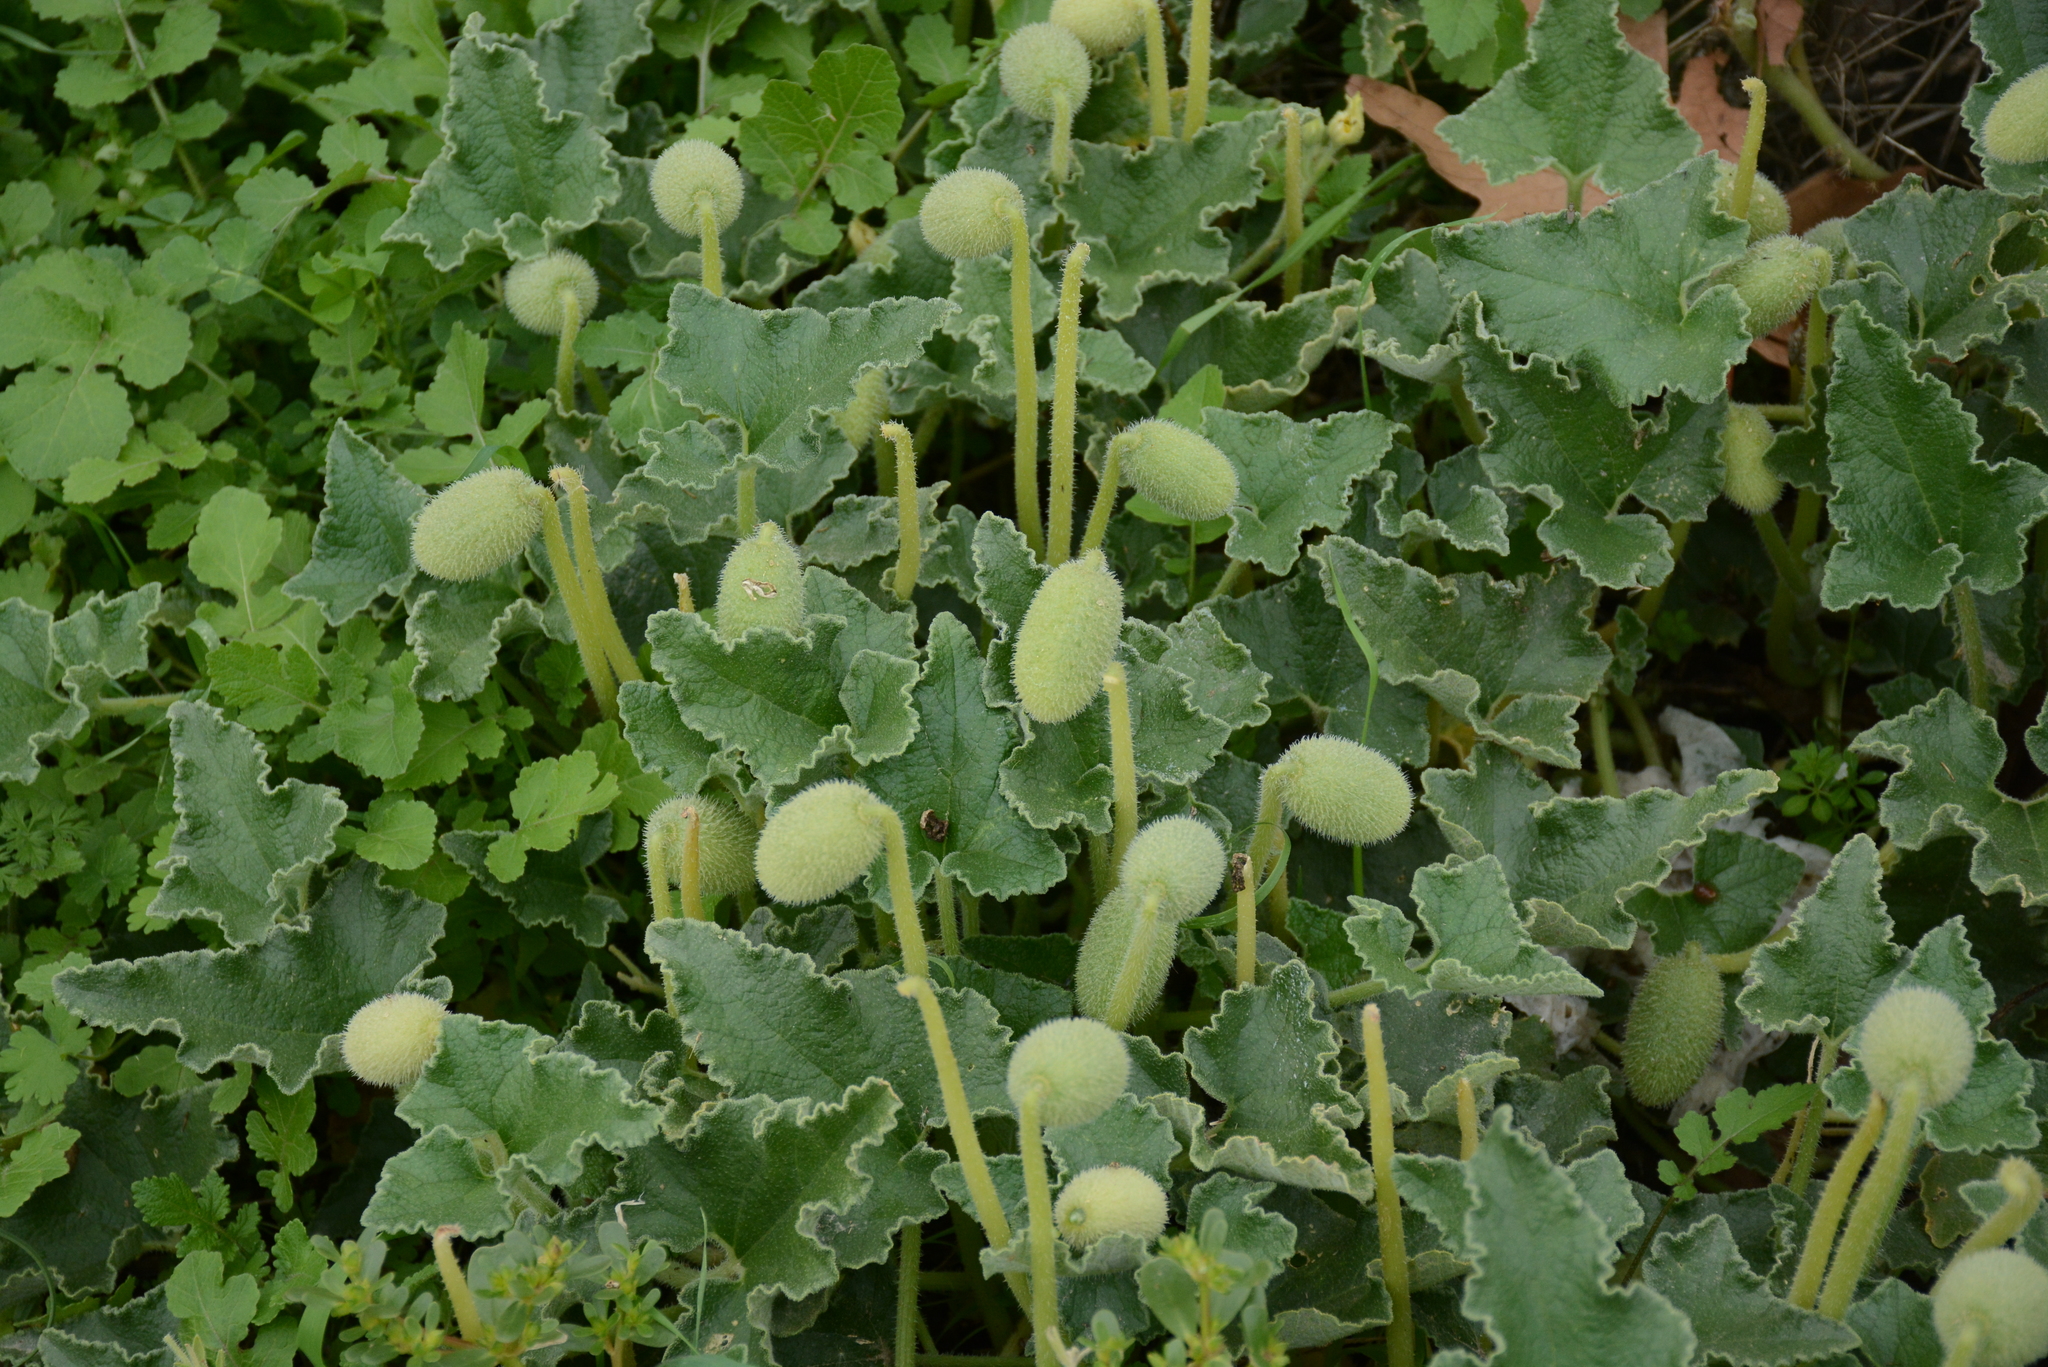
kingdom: Plantae
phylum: Tracheophyta
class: Magnoliopsida
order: Cucurbitales
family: Cucurbitaceae
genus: Ecballium
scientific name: Ecballium elaterium
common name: Squirting cucumber
